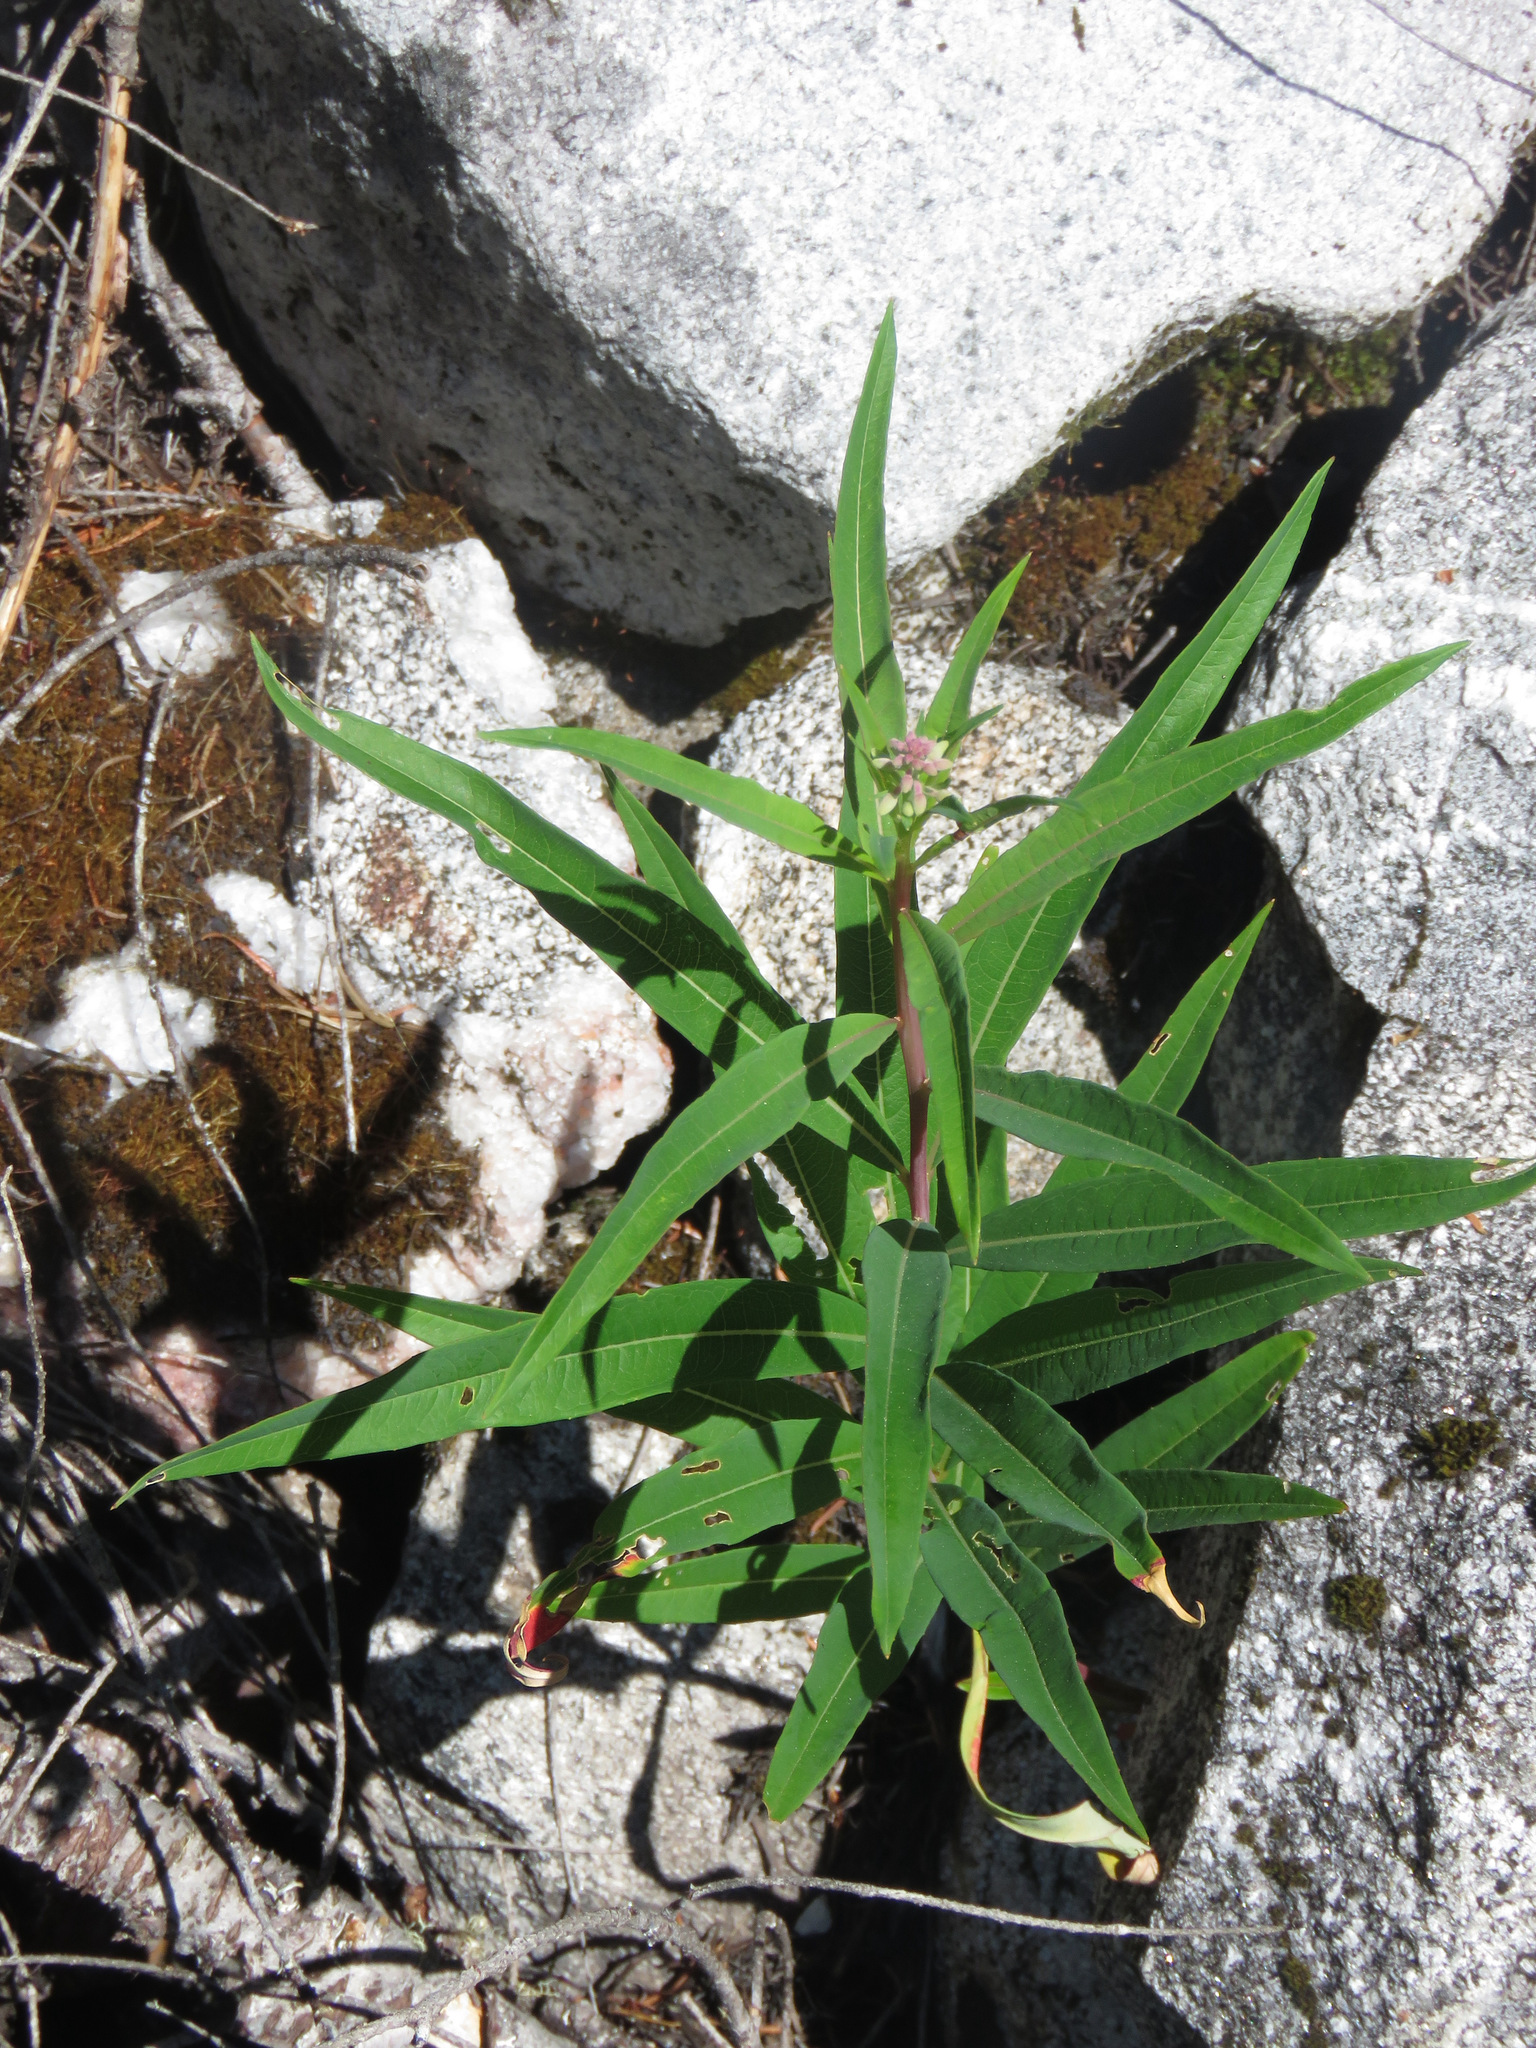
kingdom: Plantae
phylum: Tracheophyta
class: Magnoliopsida
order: Myrtales
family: Onagraceae
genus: Chamaenerion
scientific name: Chamaenerion angustifolium
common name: Fireweed
